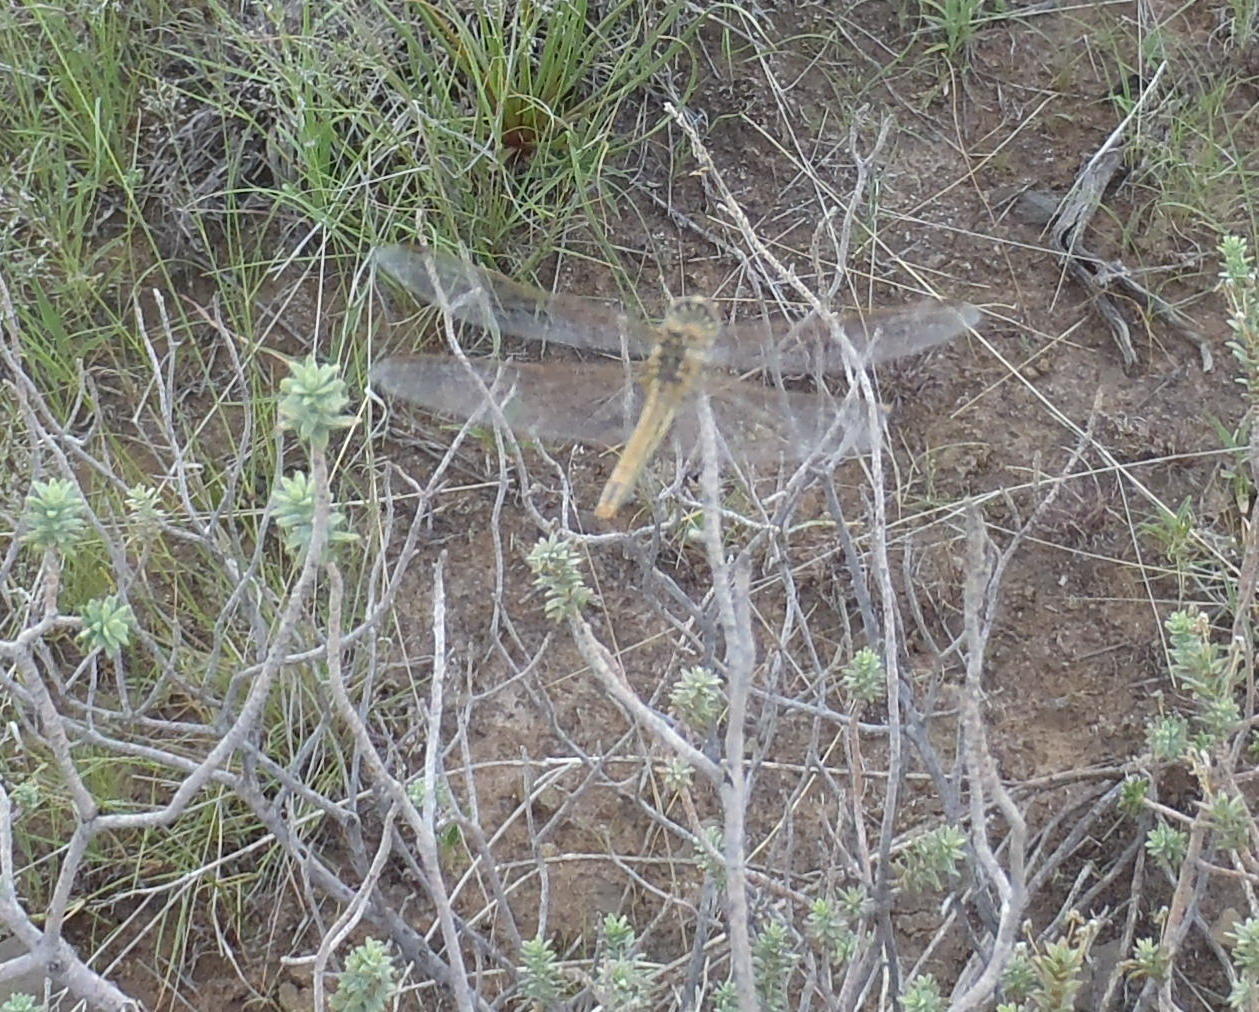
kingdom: Animalia
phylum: Arthropoda
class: Insecta
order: Odonata
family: Libellulidae
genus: Sympetrum
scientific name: Sympetrum fonscolombii
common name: Red-veined darter
